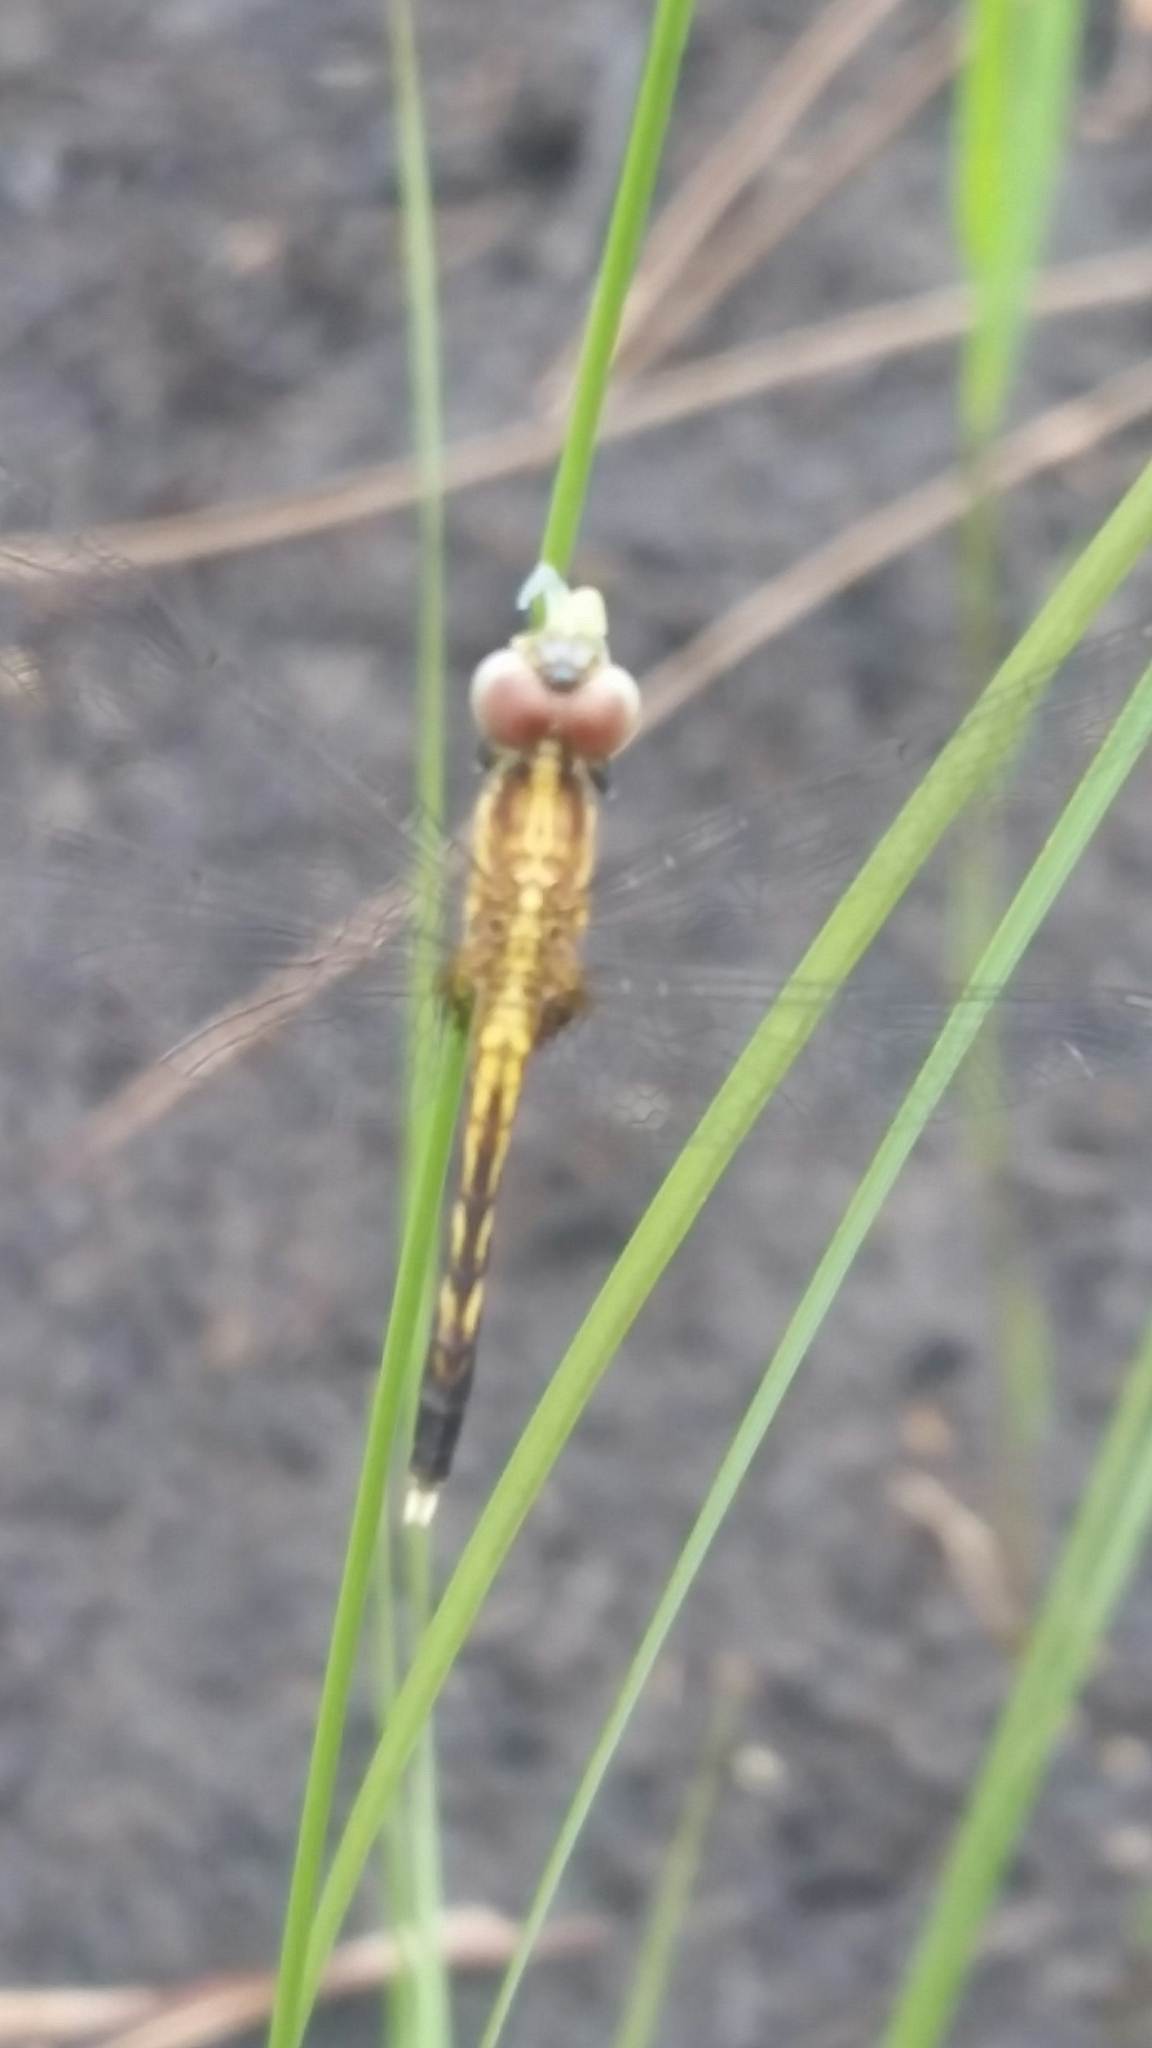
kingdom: Animalia
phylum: Arthropoda
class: Insecta
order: Odonata
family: Libellulidae
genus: Erythrodiplax
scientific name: Erythrodiplax minuscula
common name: Little blue dragonlet
